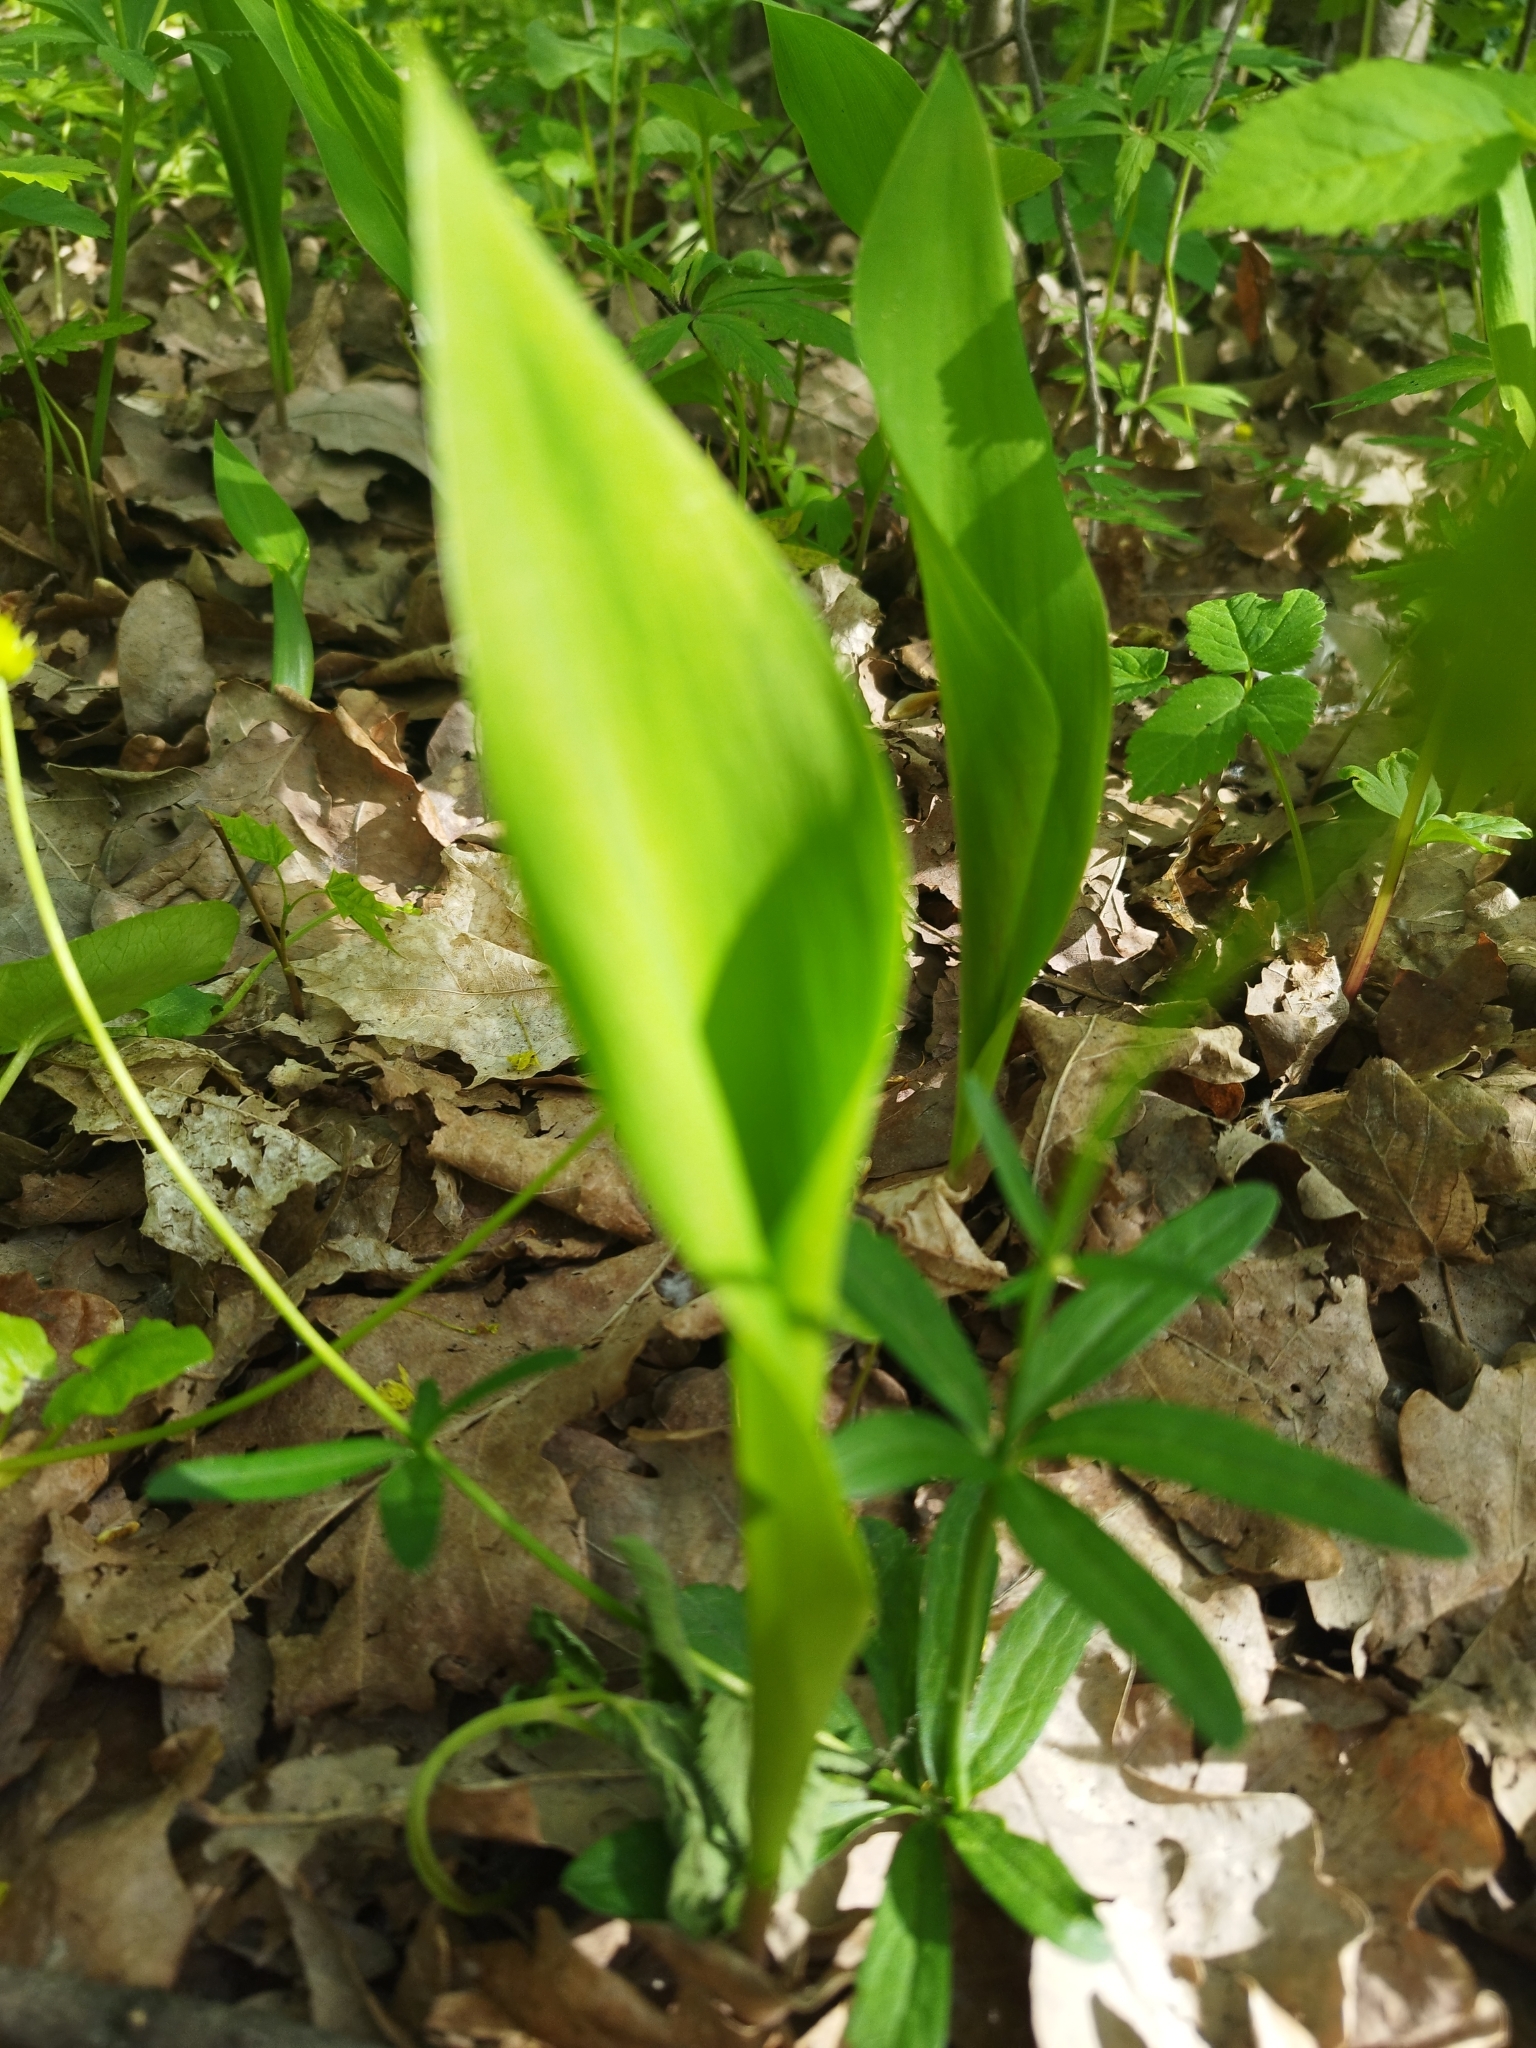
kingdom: Plantae
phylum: Tracheophyta
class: Liliopsida
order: Asparagales
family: Asparagaceae
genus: Convallaria
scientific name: Convallaria majalis
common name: Lily-of-the-valley
